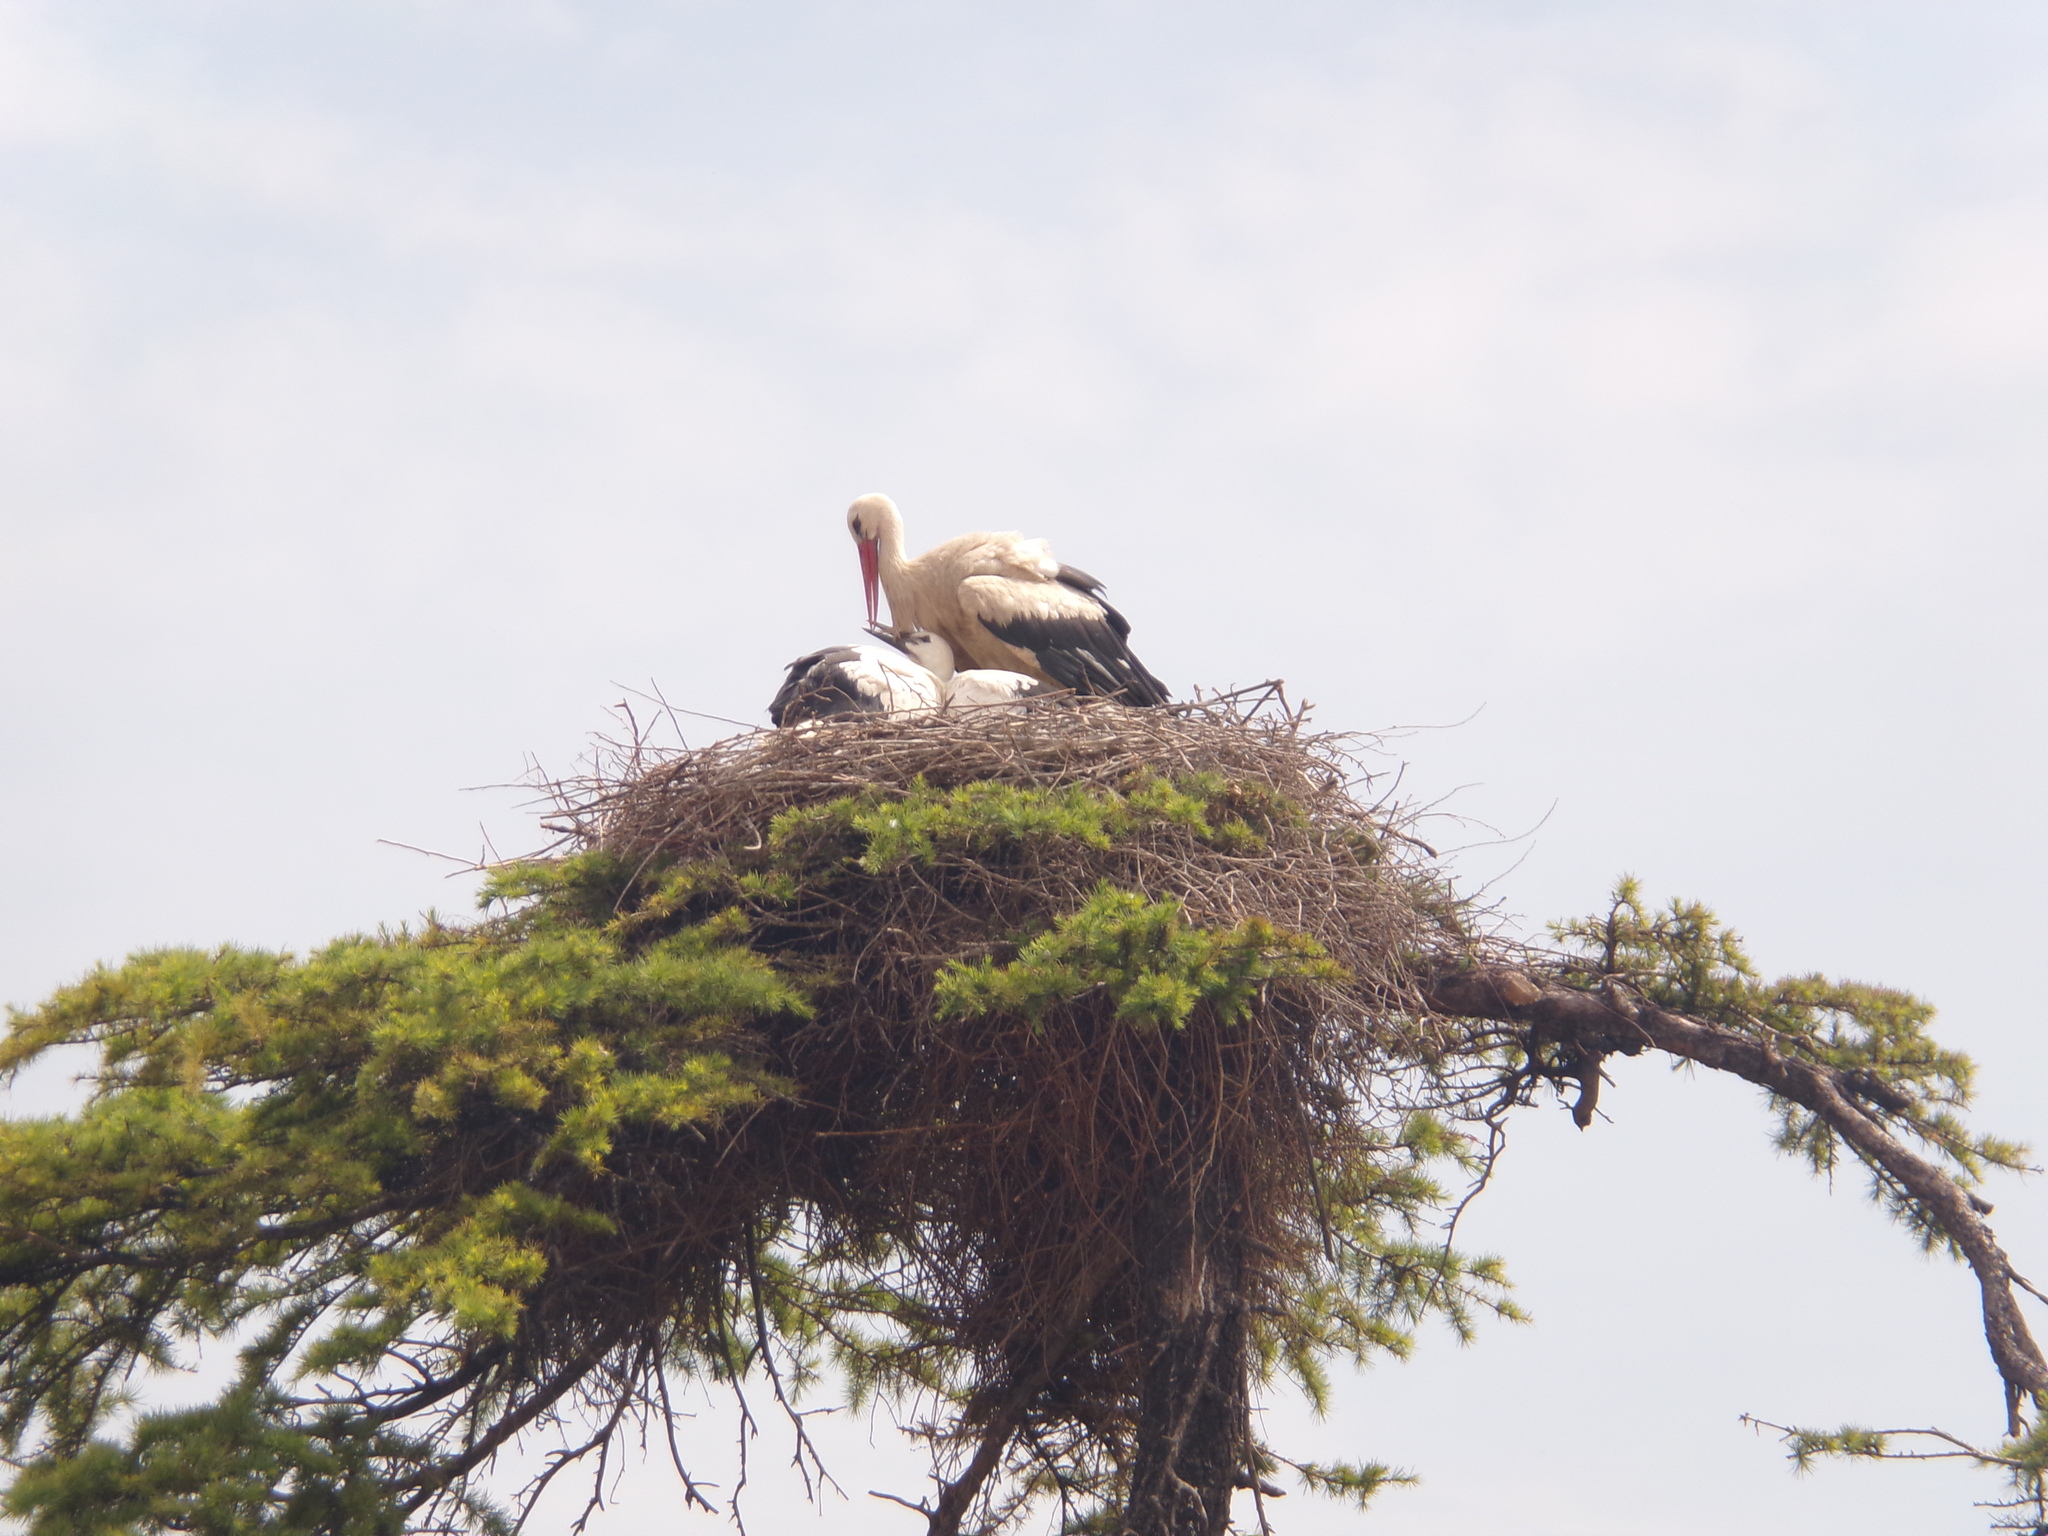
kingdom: Animalia
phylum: Chordata
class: Aves
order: Ciconiiformes
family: Ciconiidae
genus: Ciconia
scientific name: Ciconia ciconia
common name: White stork
